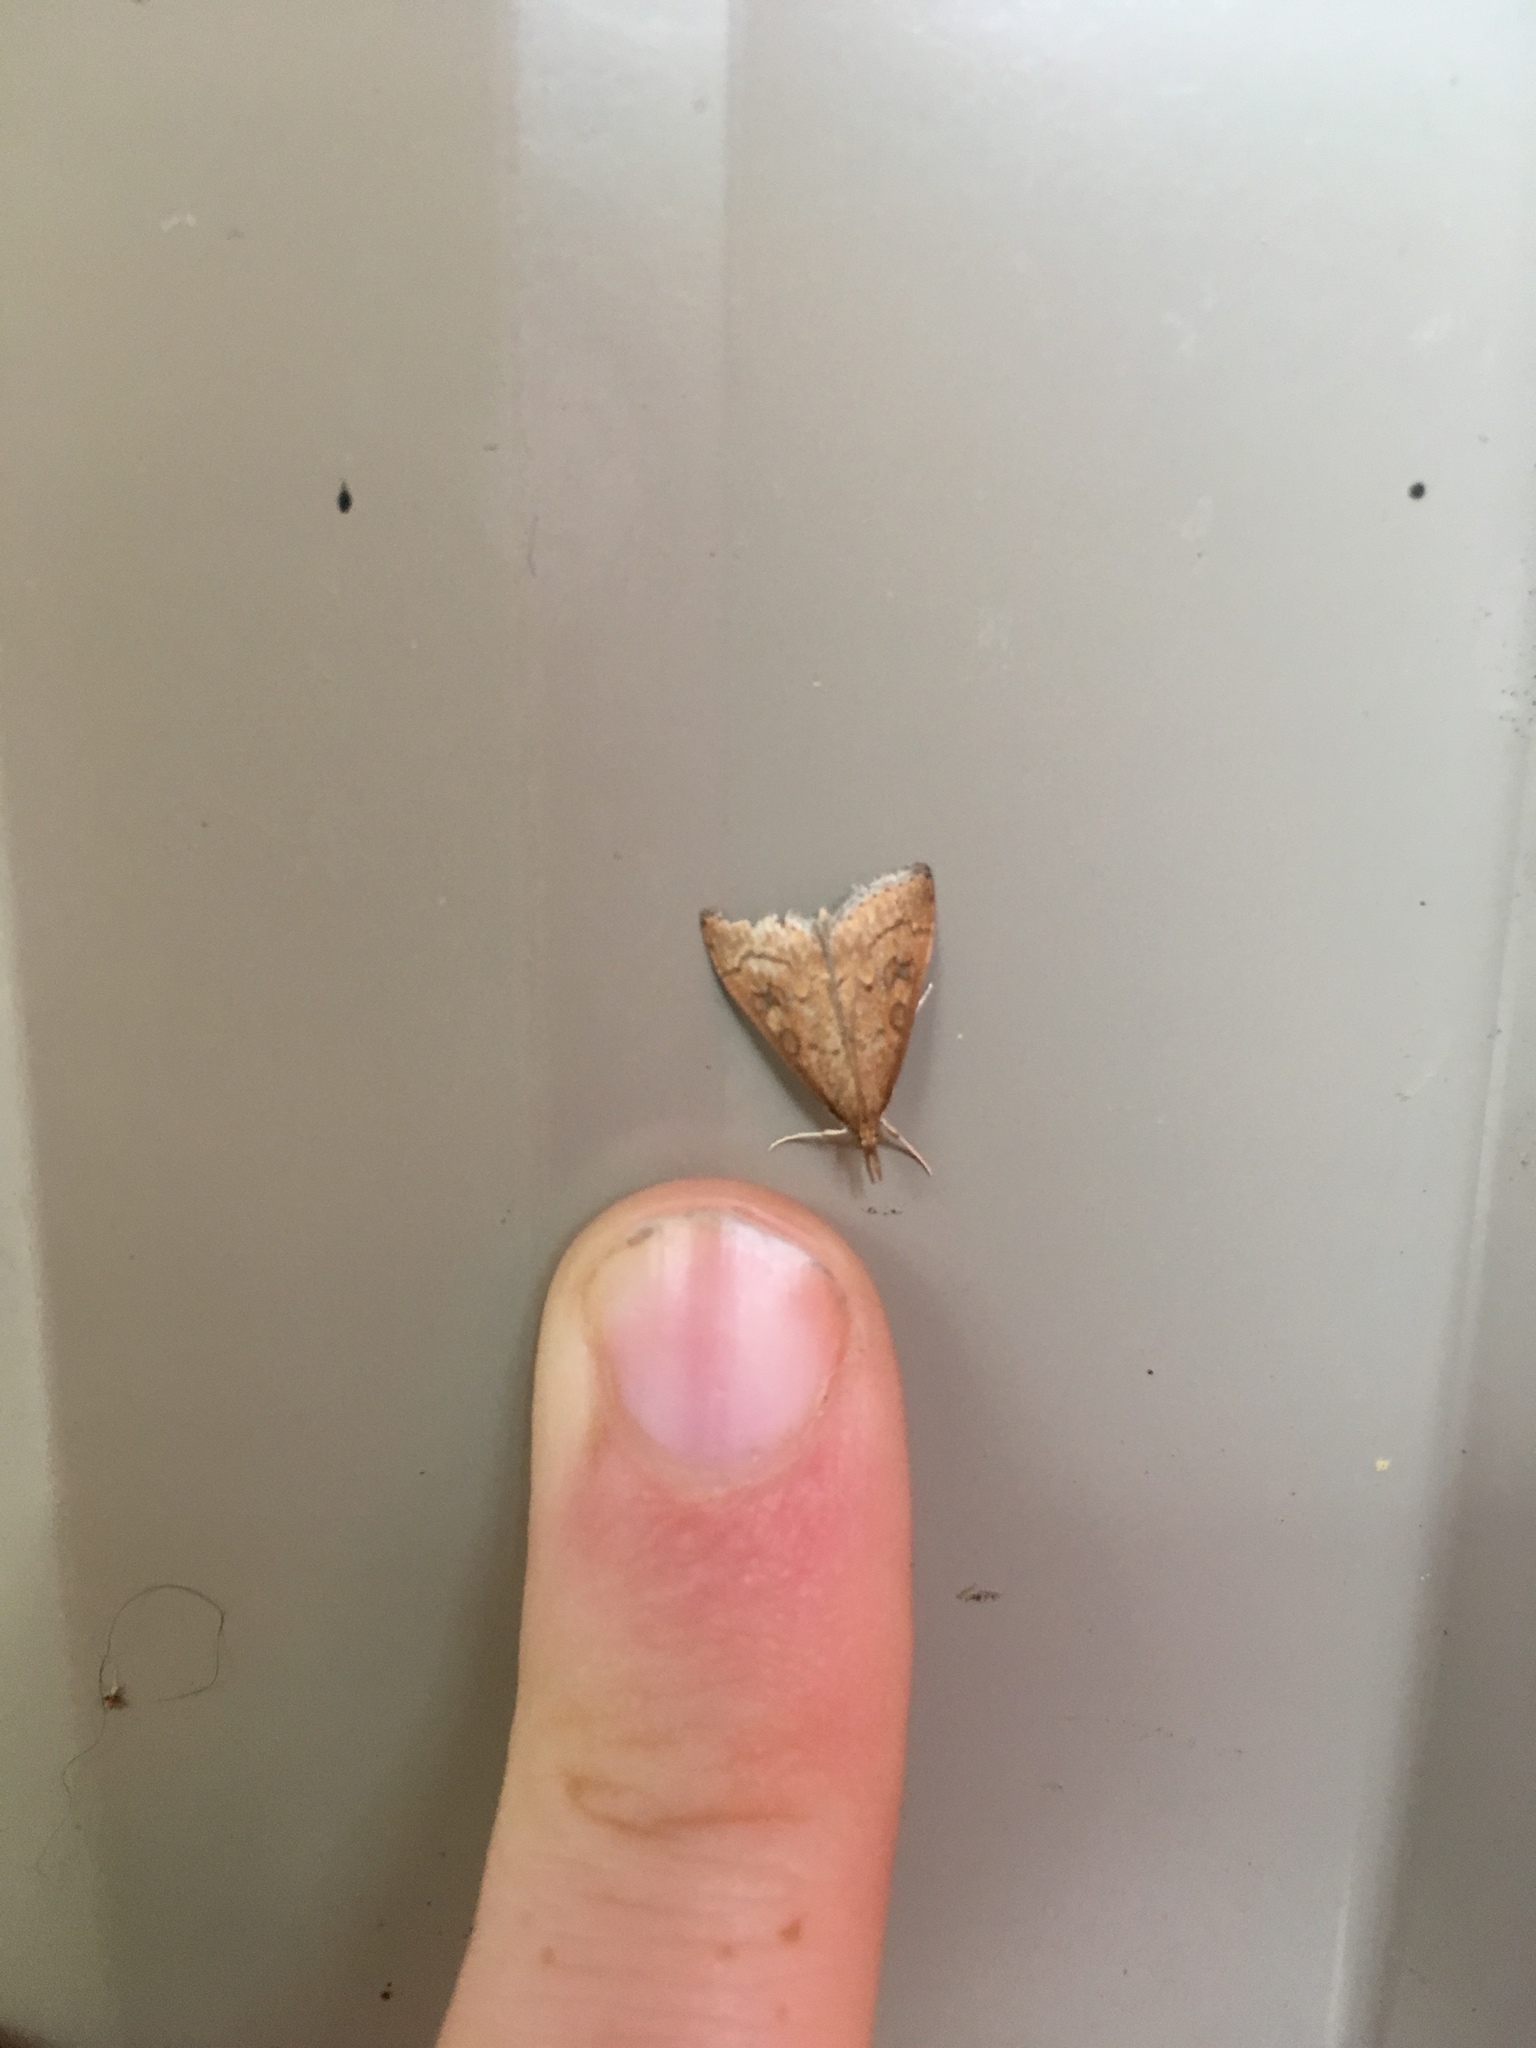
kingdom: Animalia
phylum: Arthropoda
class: Insecta
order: Lepidoptera
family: Crambidae
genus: Udea
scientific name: Udea rubigalis
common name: Celery leaftier moth
